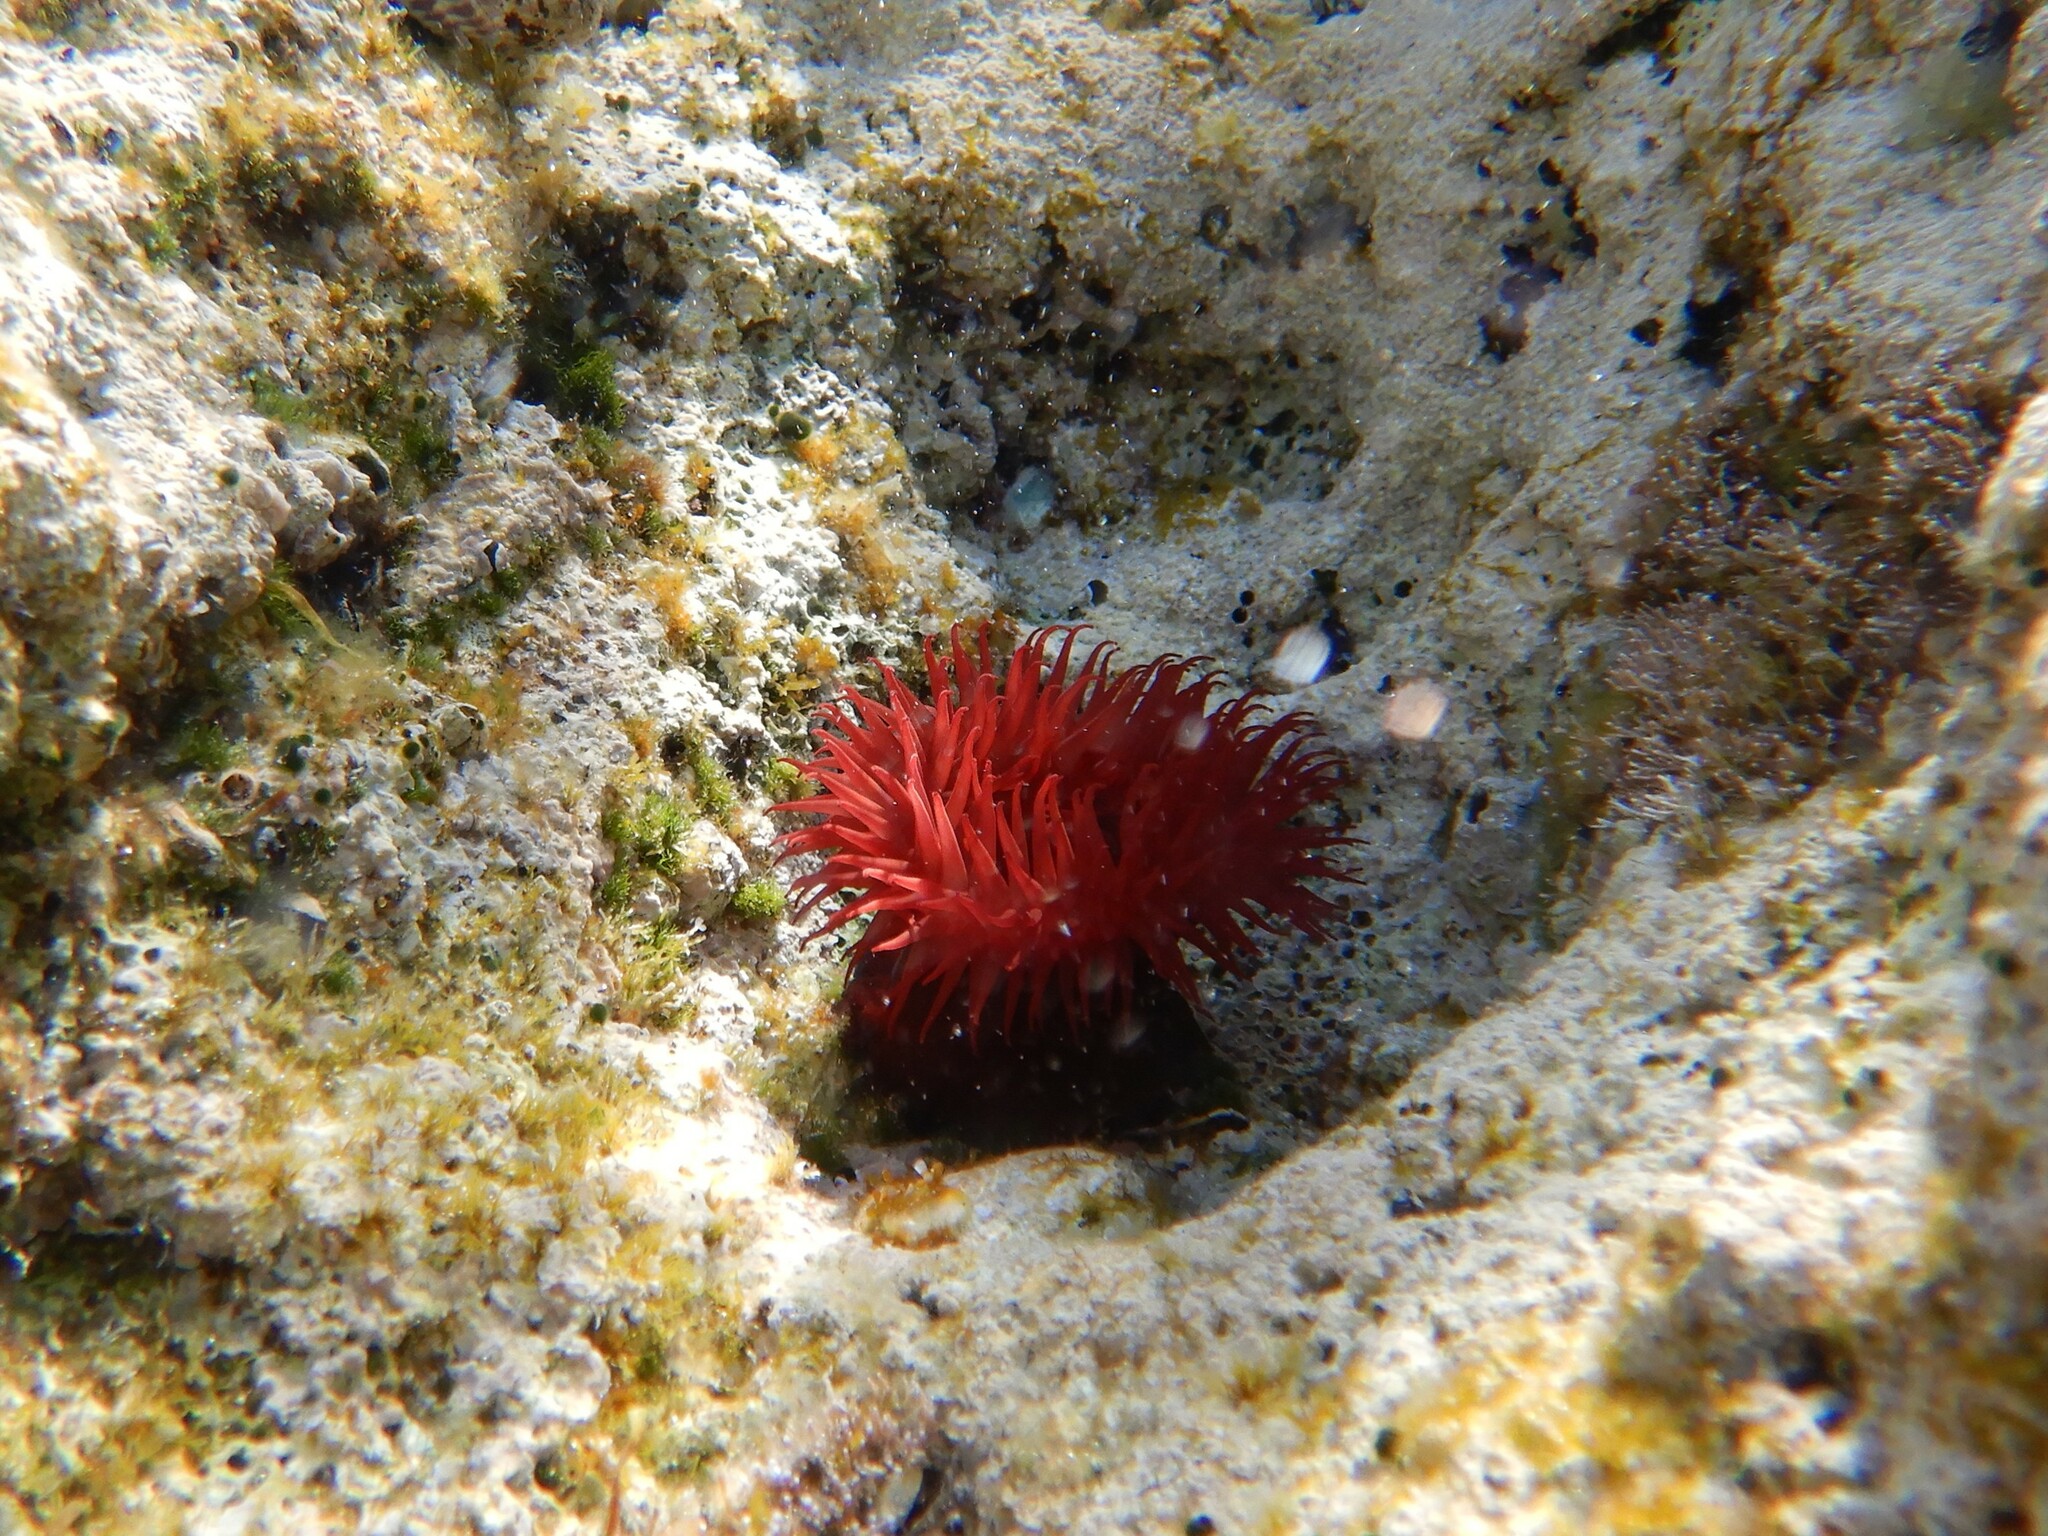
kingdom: Animalia
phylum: Cnidaria
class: Anthozoa
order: Actiniaria
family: Actiniidae
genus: Actinia
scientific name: Actinia mediterranea
